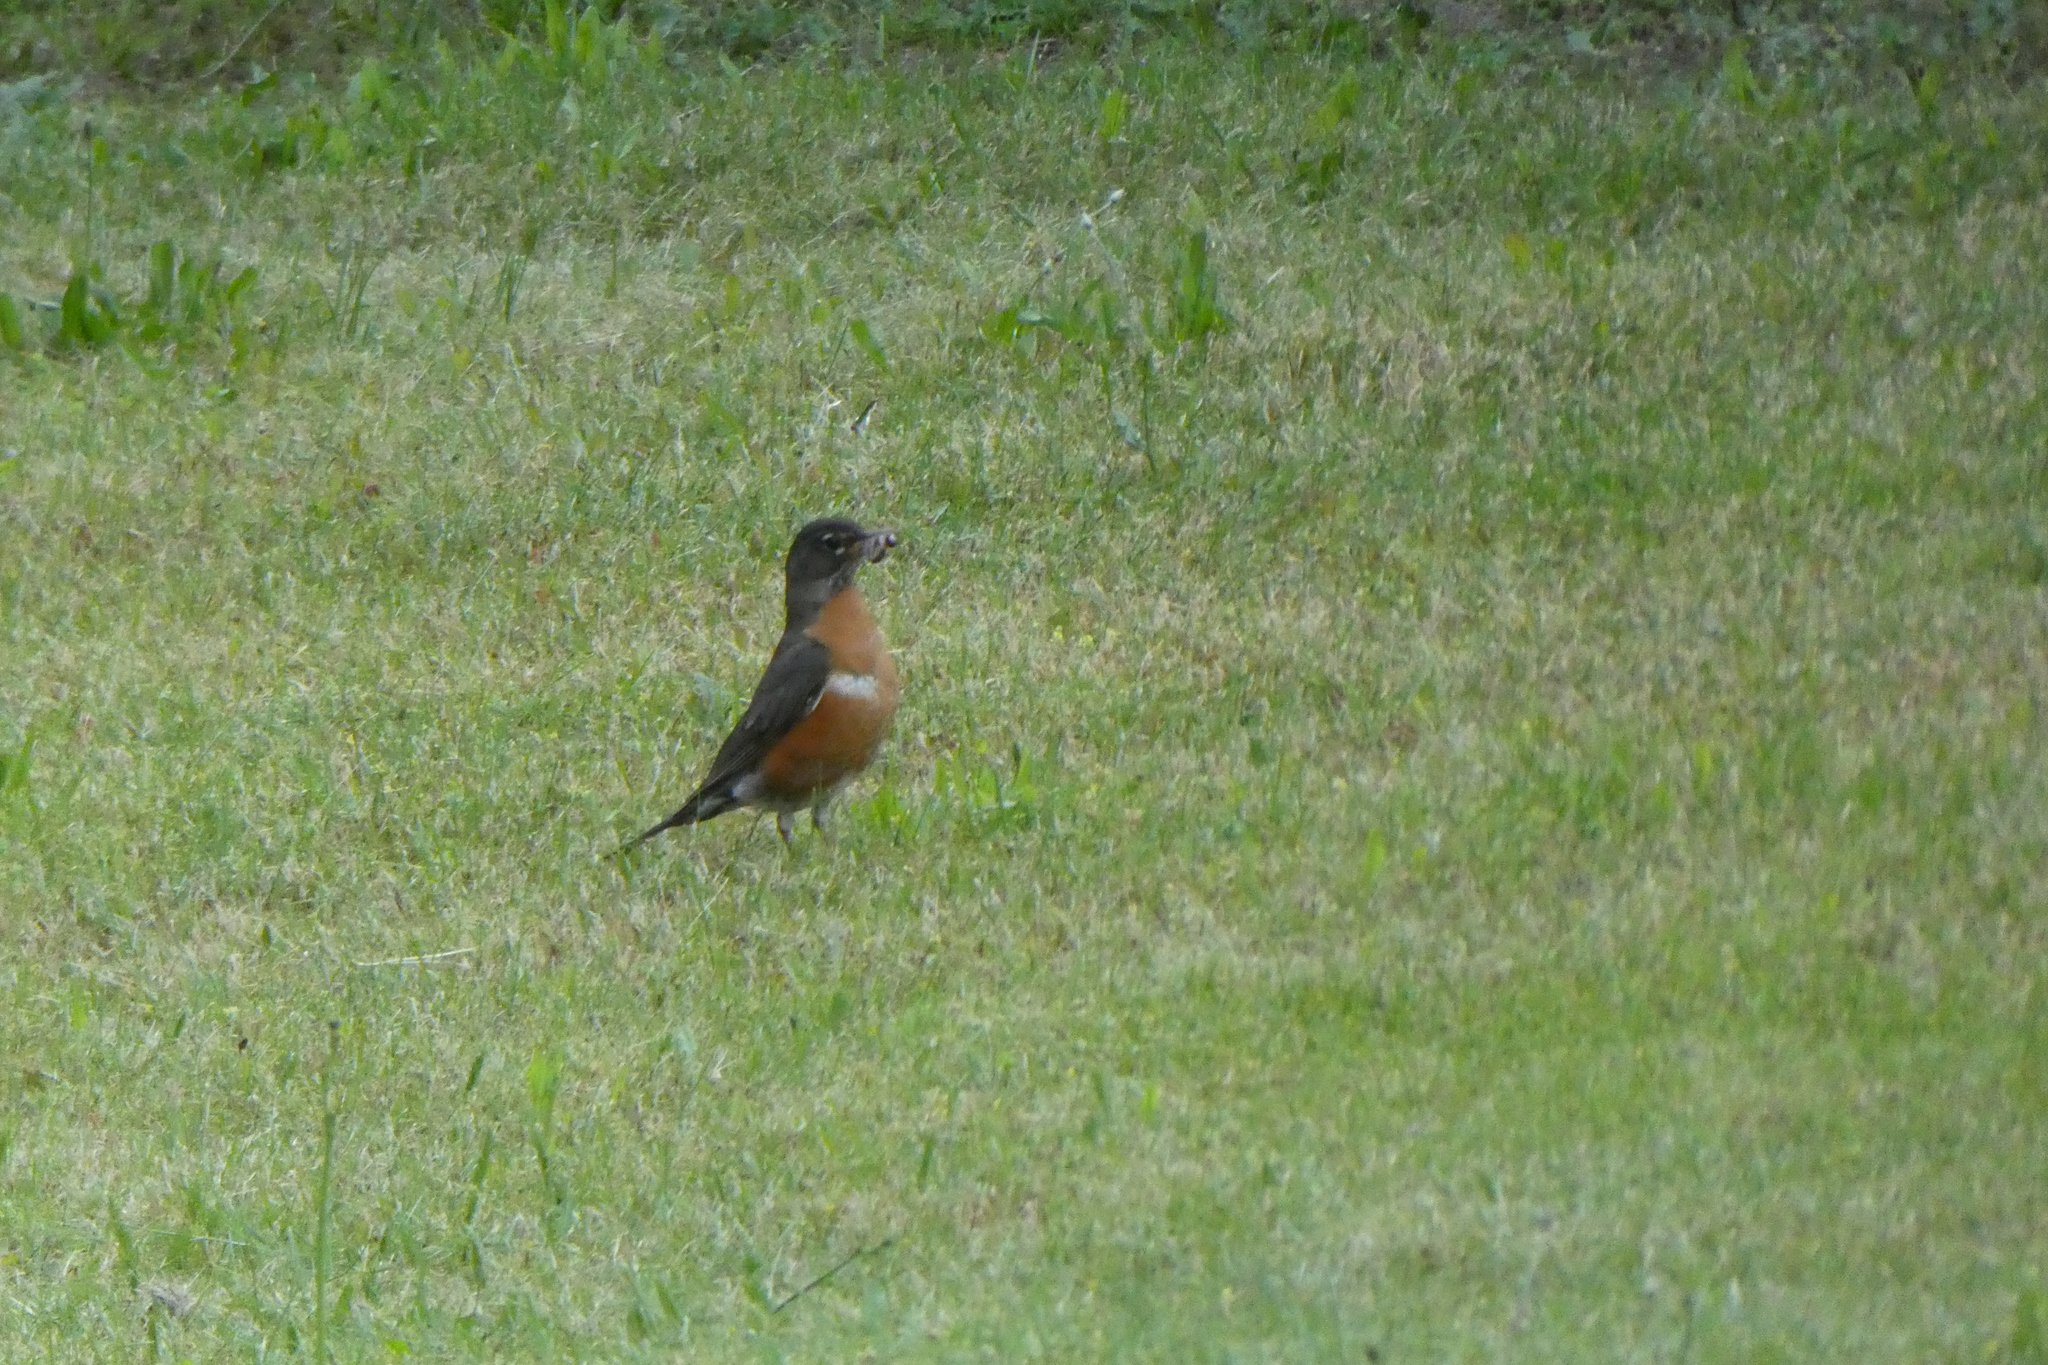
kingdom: Animalia
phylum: Chordata
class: Aves
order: Passeriformes
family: Turdidae
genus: Turdus
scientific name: Turdus migratorius
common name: American robin
